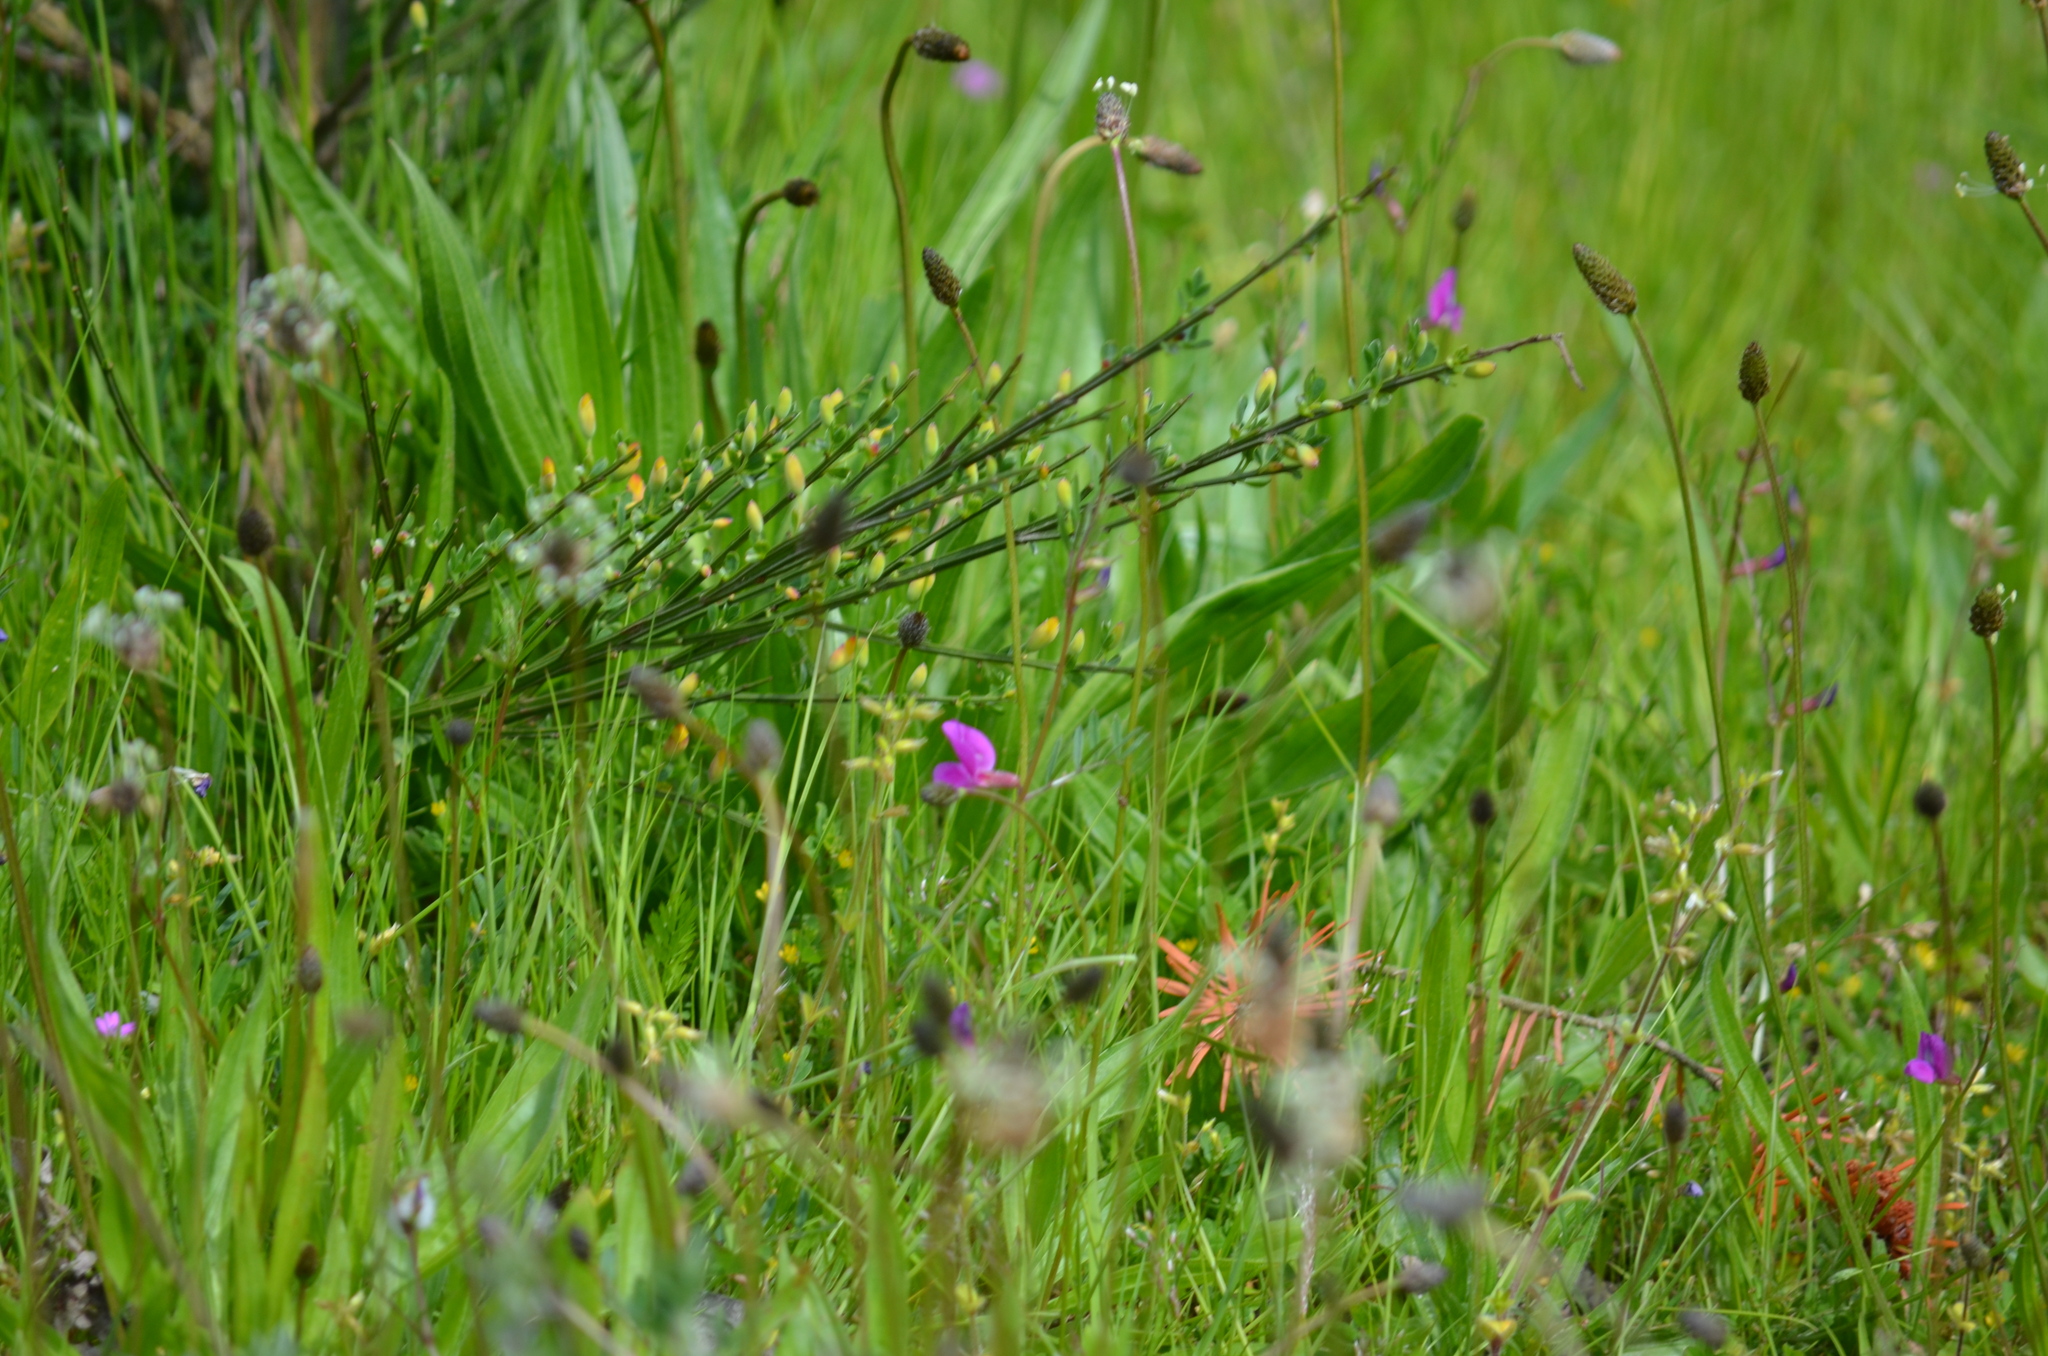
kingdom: Plantae
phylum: Tracheophyta
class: Magnoliopsida
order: Fabales
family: Fabaceae
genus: Vicia
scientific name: Vicia sativa
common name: Garden vetch
